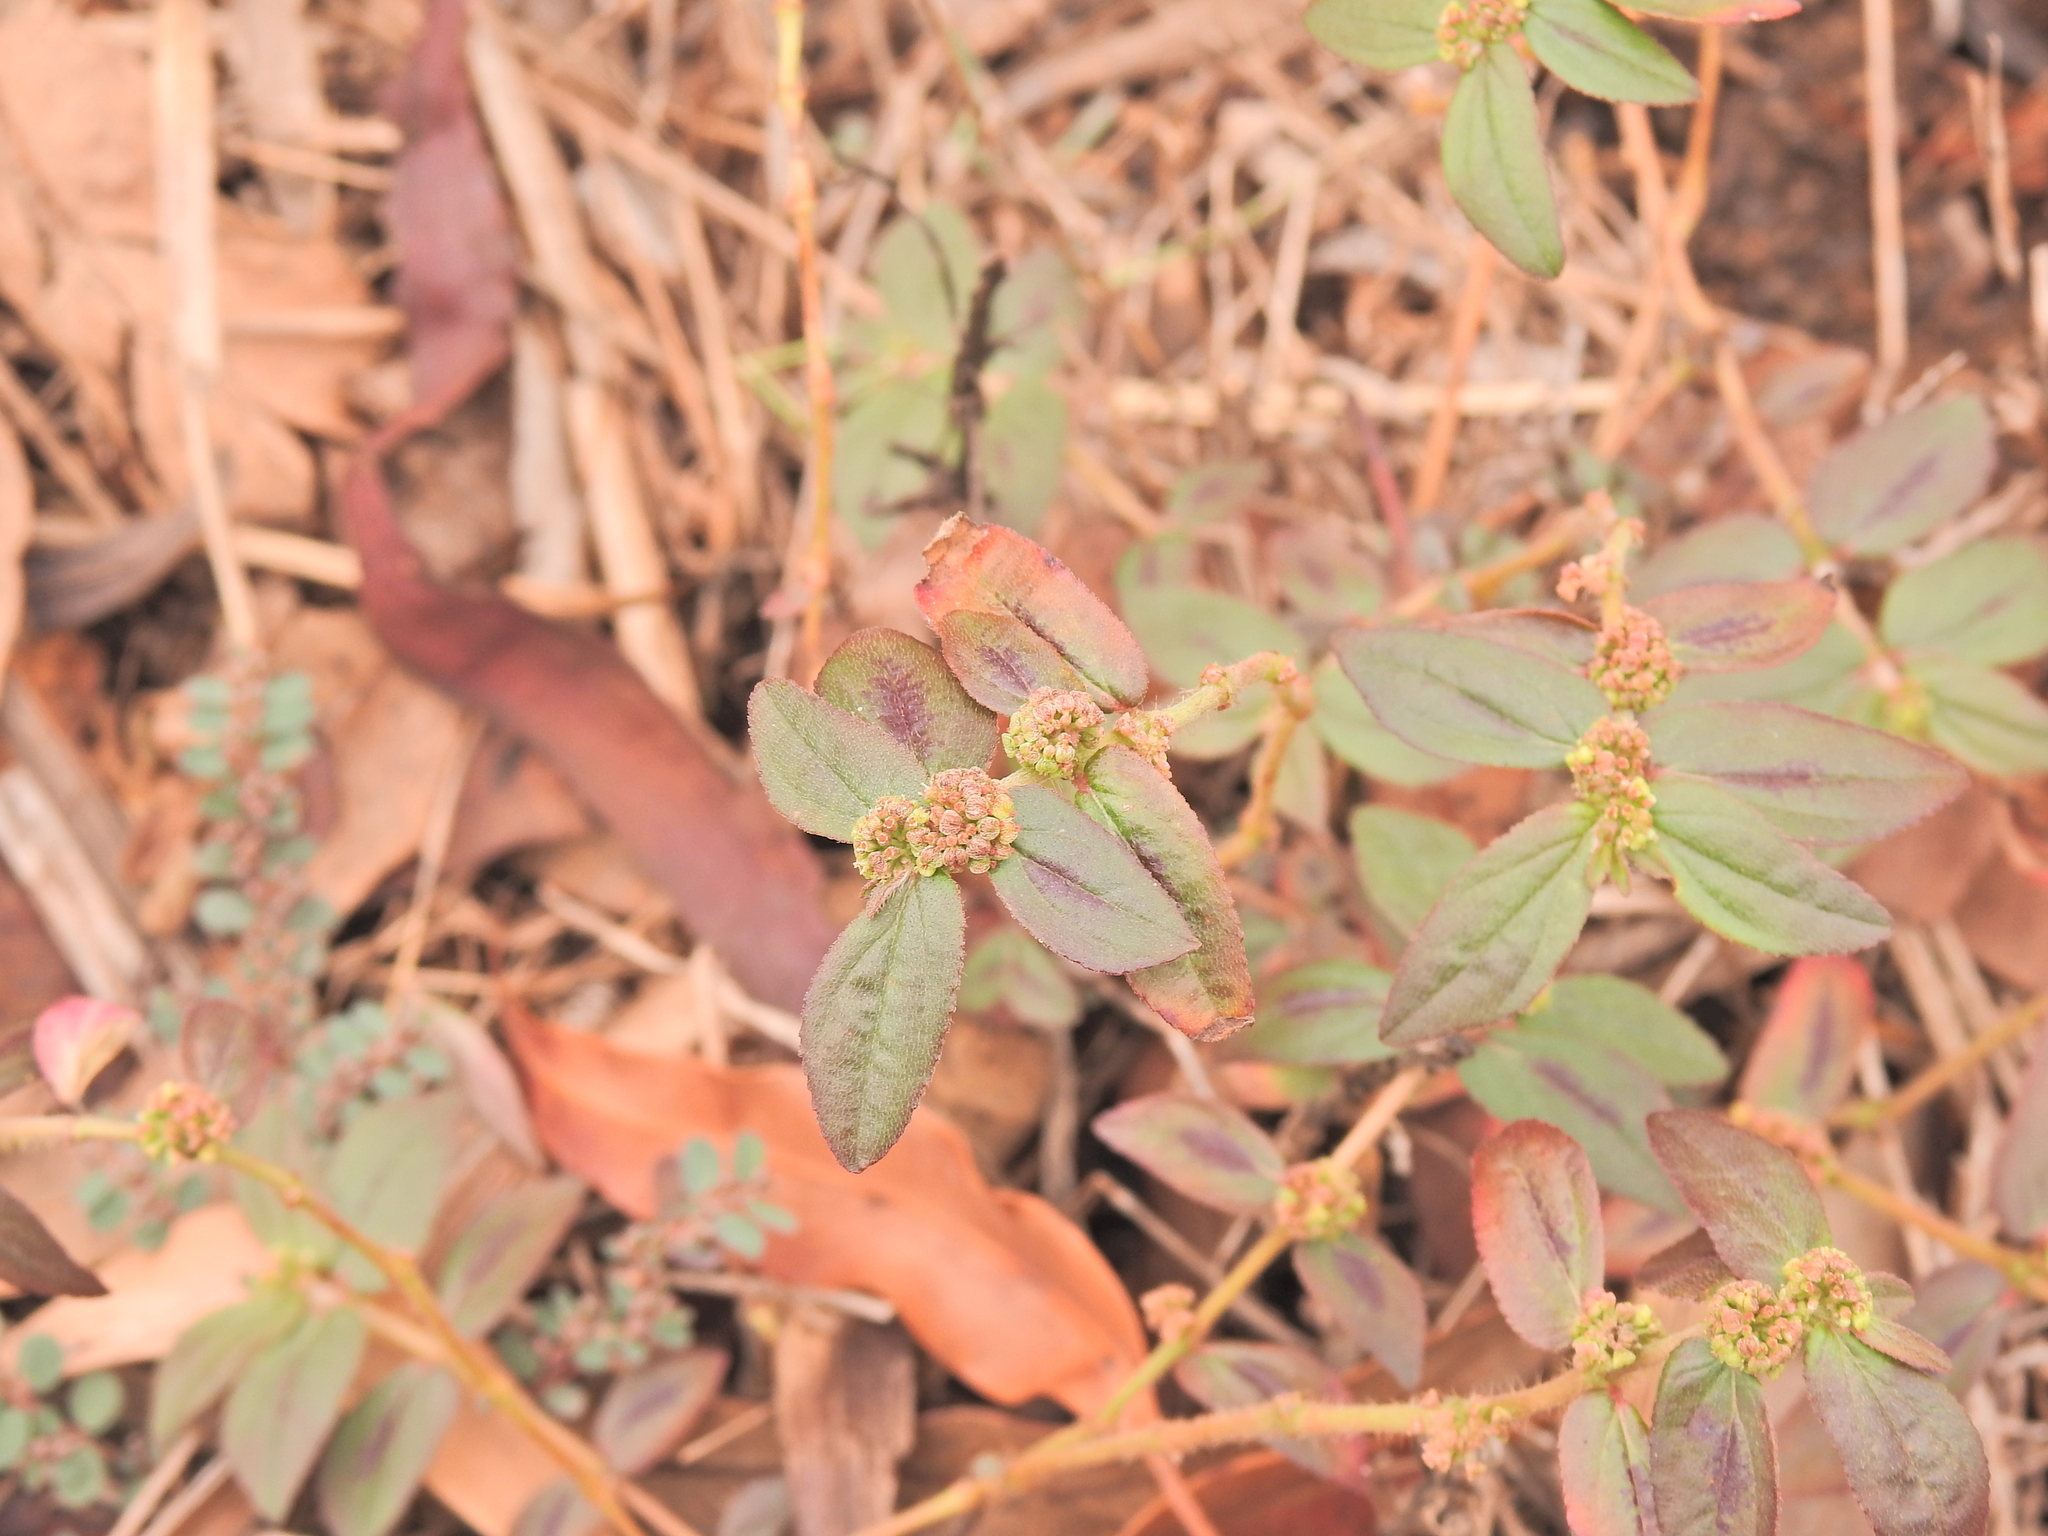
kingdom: Plantae
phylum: Tracheophyta
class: Magnoliopsida
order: Malpighiales
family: Euphorbiaceae
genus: Euphorbia
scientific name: Euphorbia hirta
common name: Pillpod sandmat
